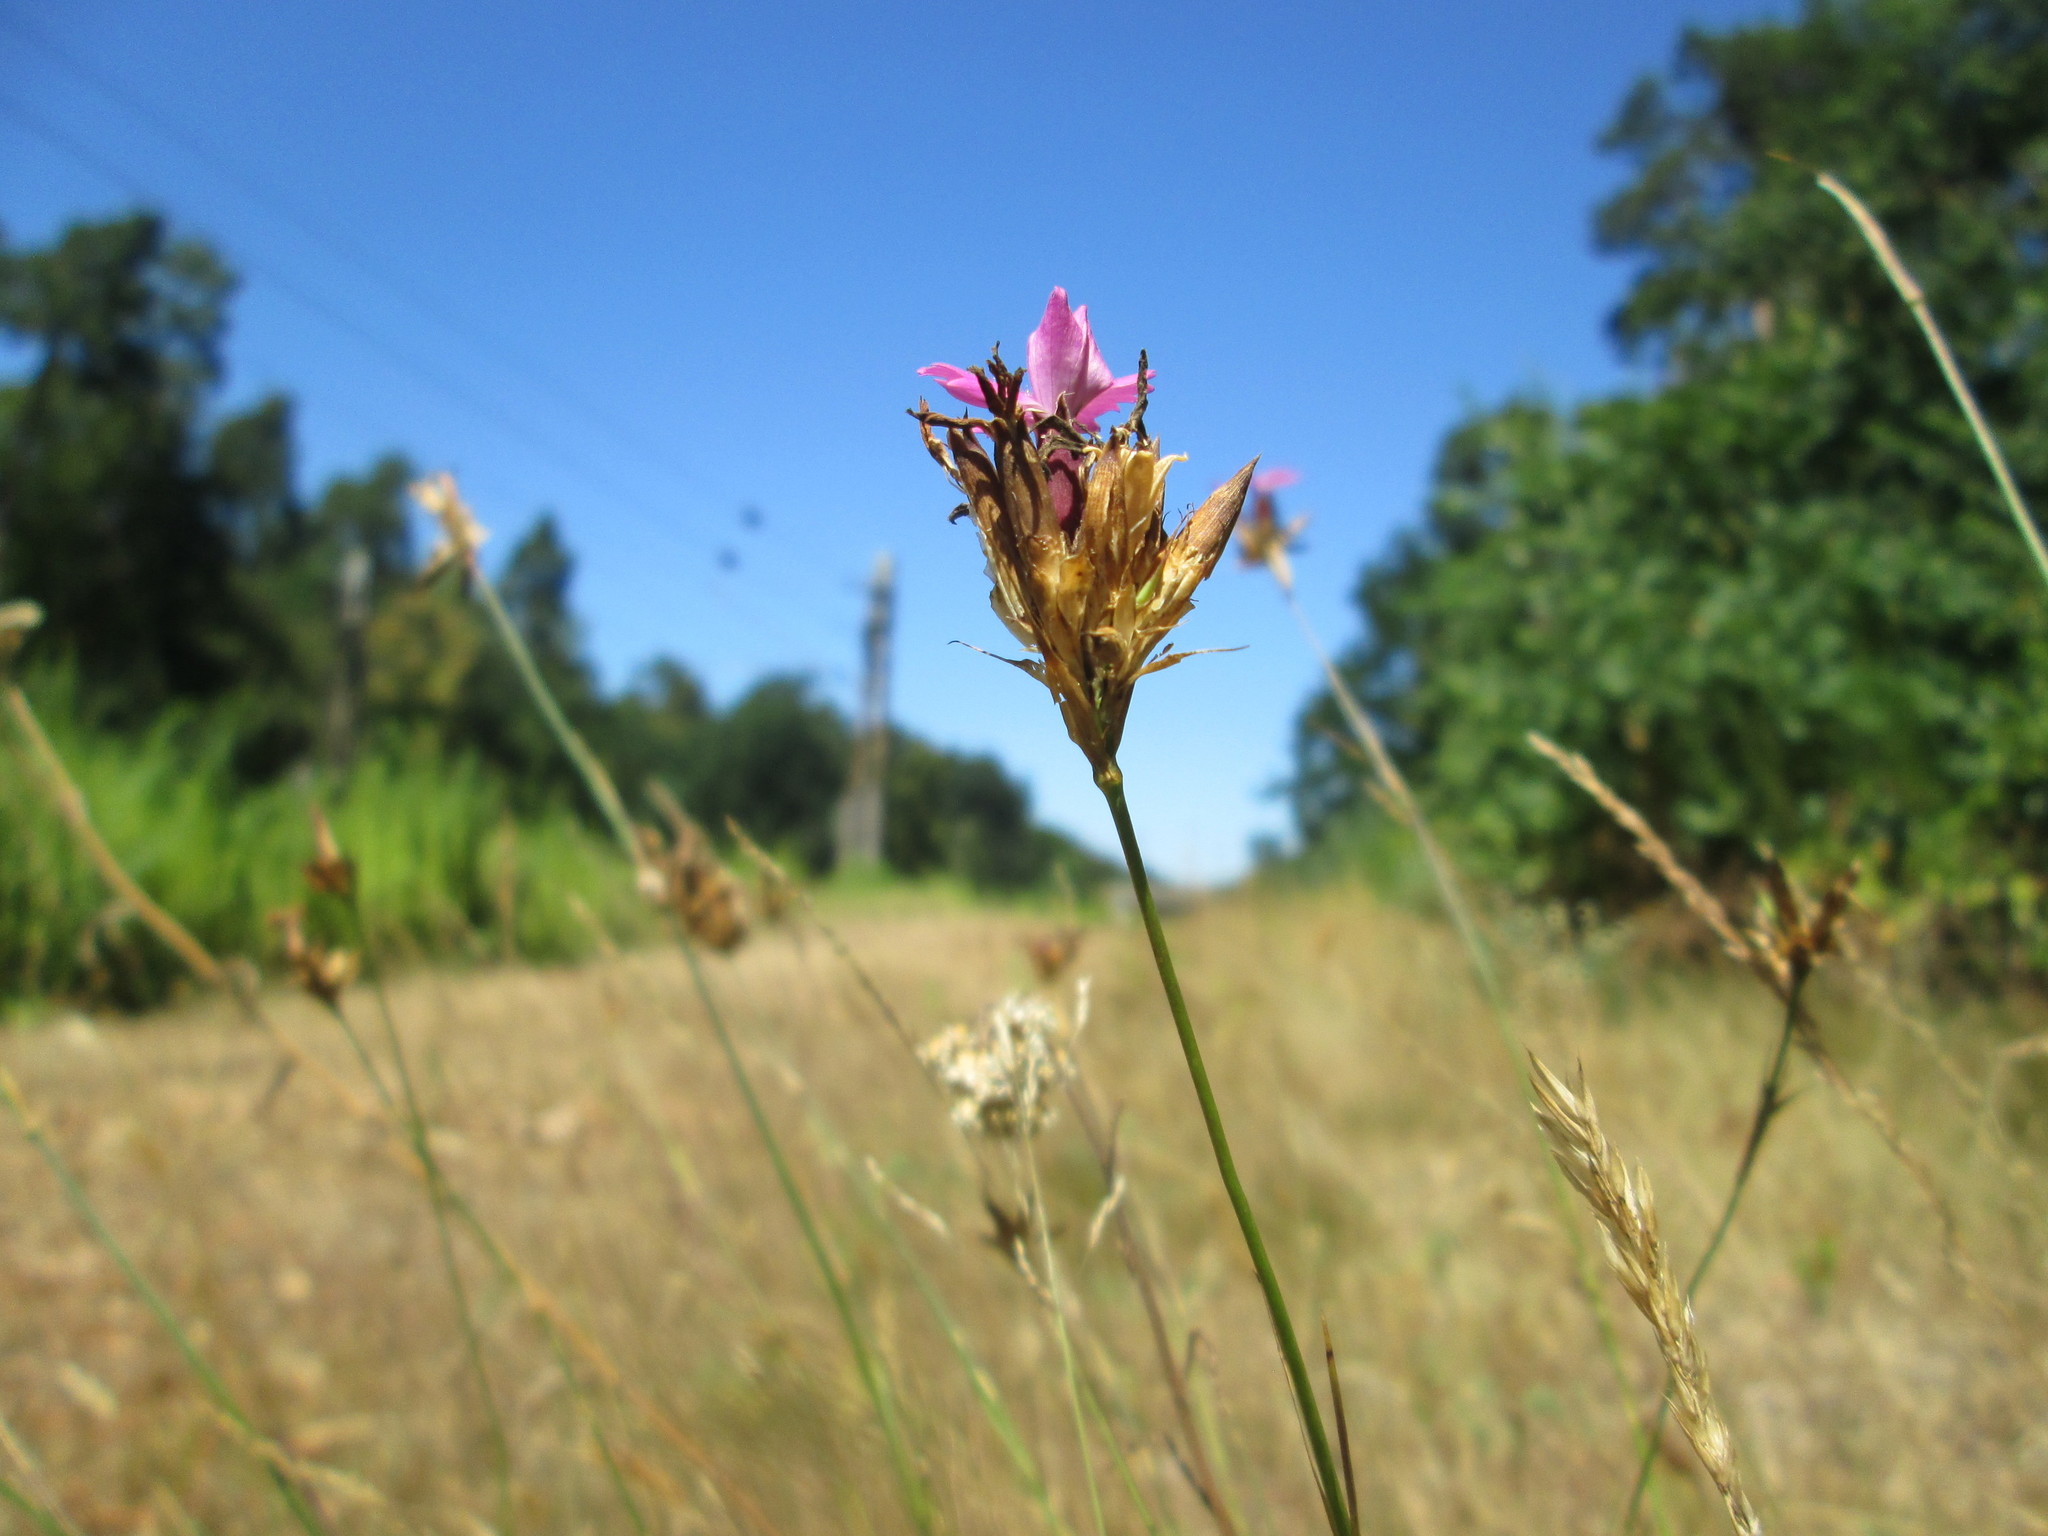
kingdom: Plantae
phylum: Tracheophyta
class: Magnoliopsida
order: Caryophyllales
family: Caryophyllaceae
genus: Dianthus
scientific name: Dianthus carthusianorum
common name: Carthusian pink
